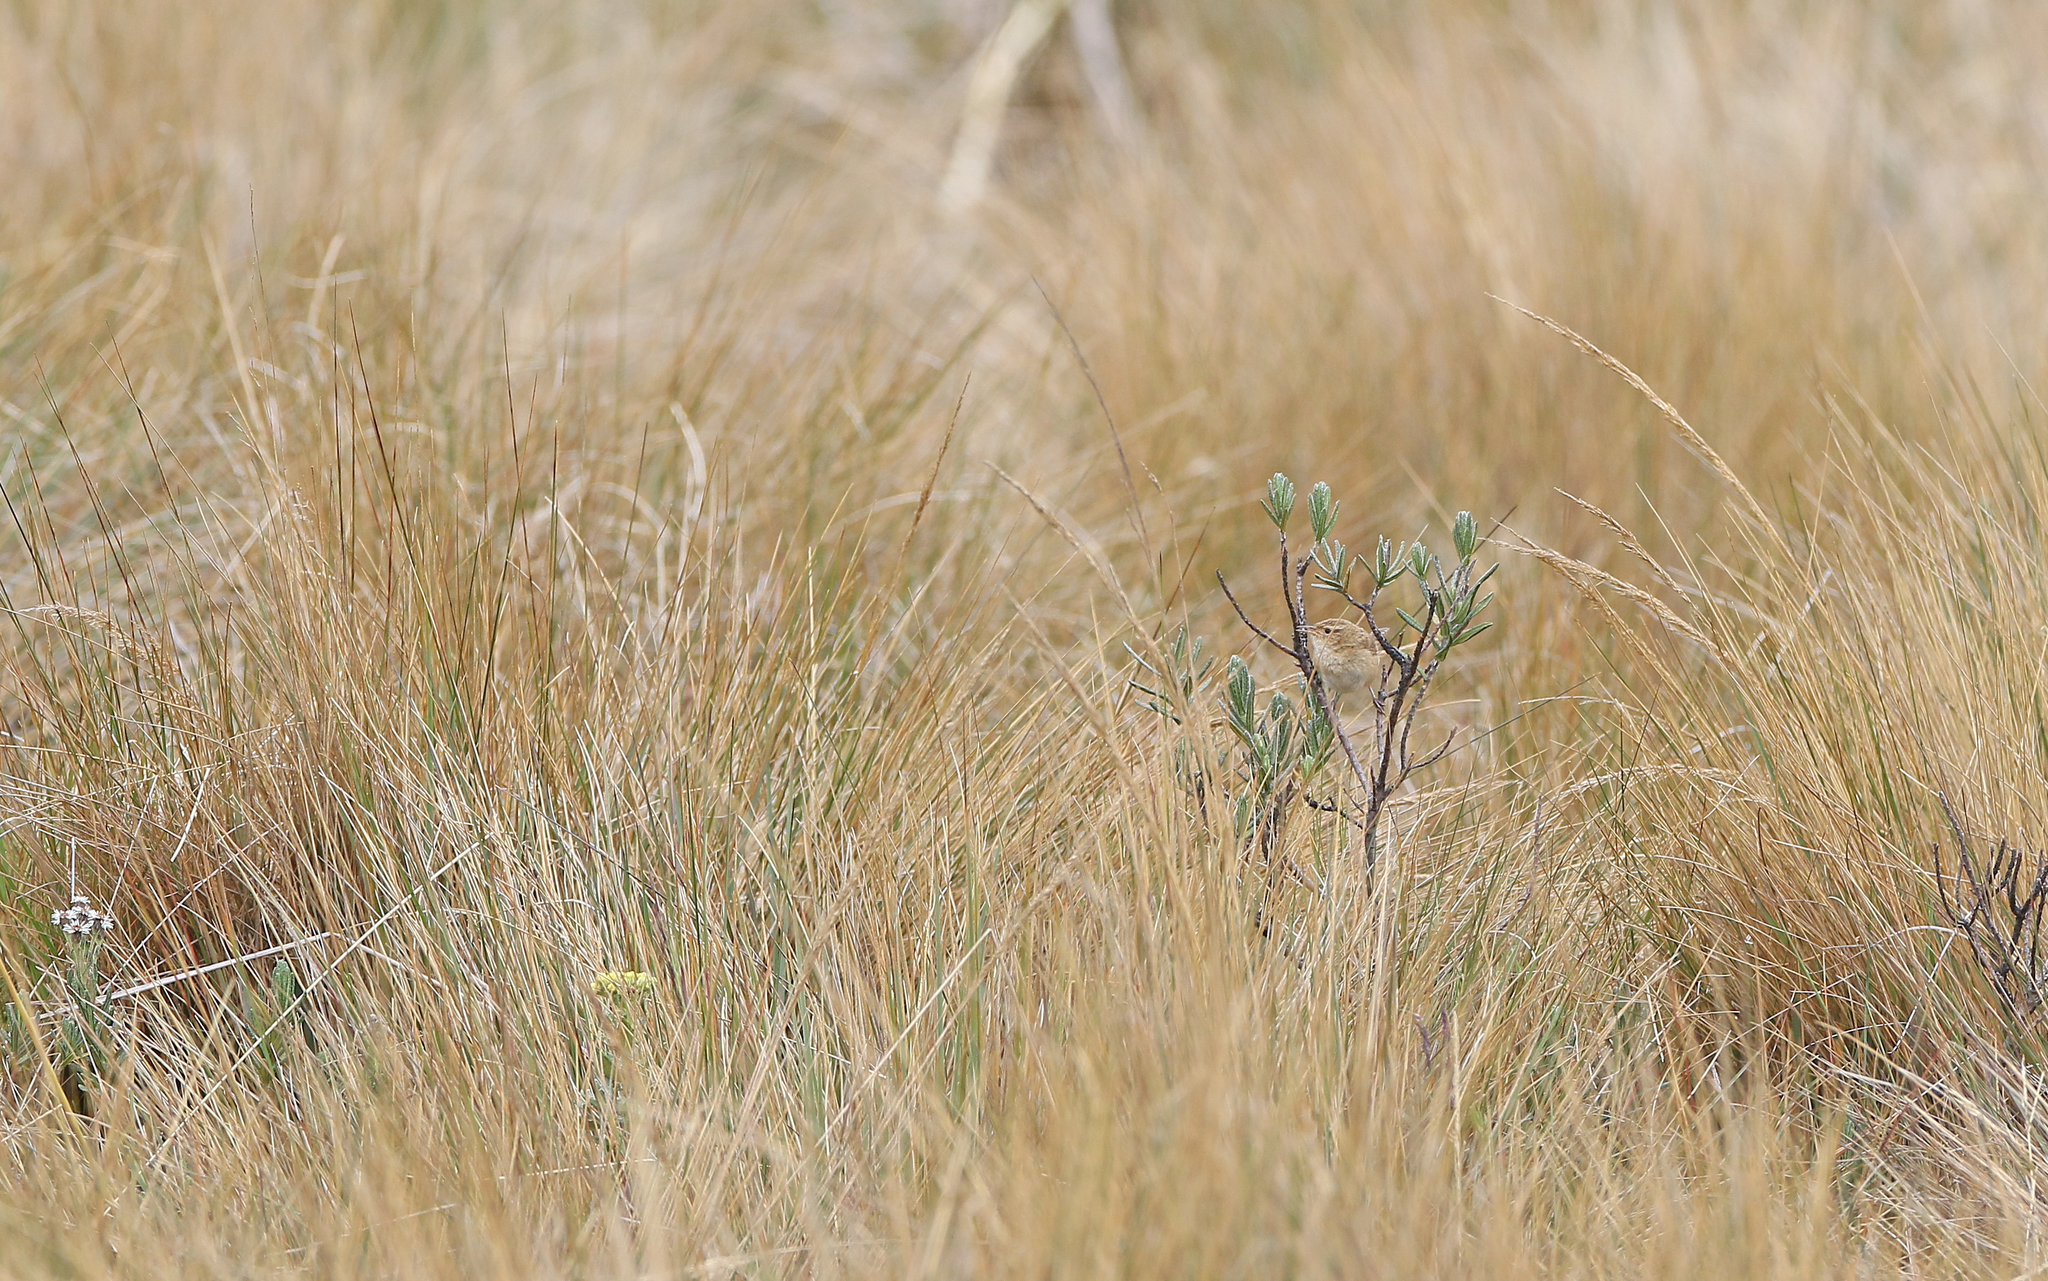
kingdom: Animalia
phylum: Chordata
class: Aves
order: Passeriformes
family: Troglodytidae
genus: Cistothorus
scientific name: Cistothorus platensis
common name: Sedge wren
